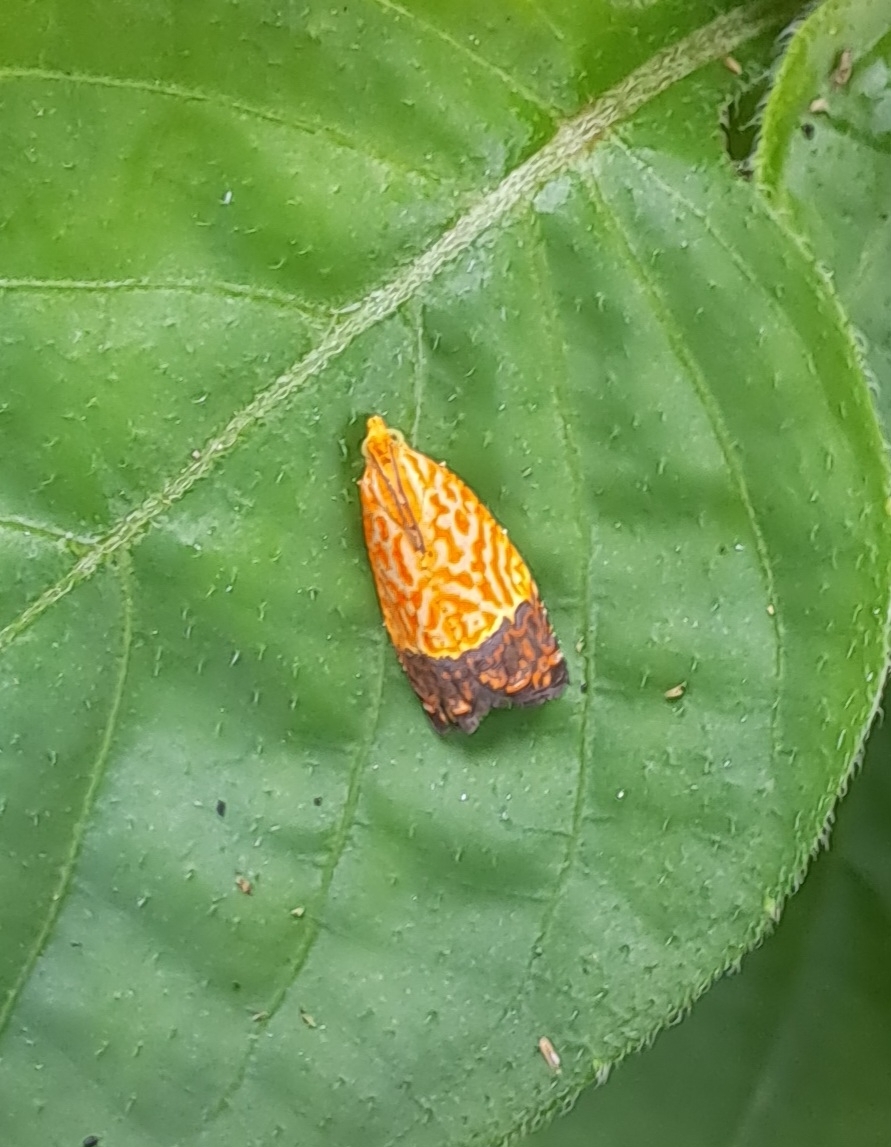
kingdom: Animalia
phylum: Arthropoda
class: Insecta
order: Lepidoptera
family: Tortricidae
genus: Loboschiza
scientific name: Loboschiza koenigiana
